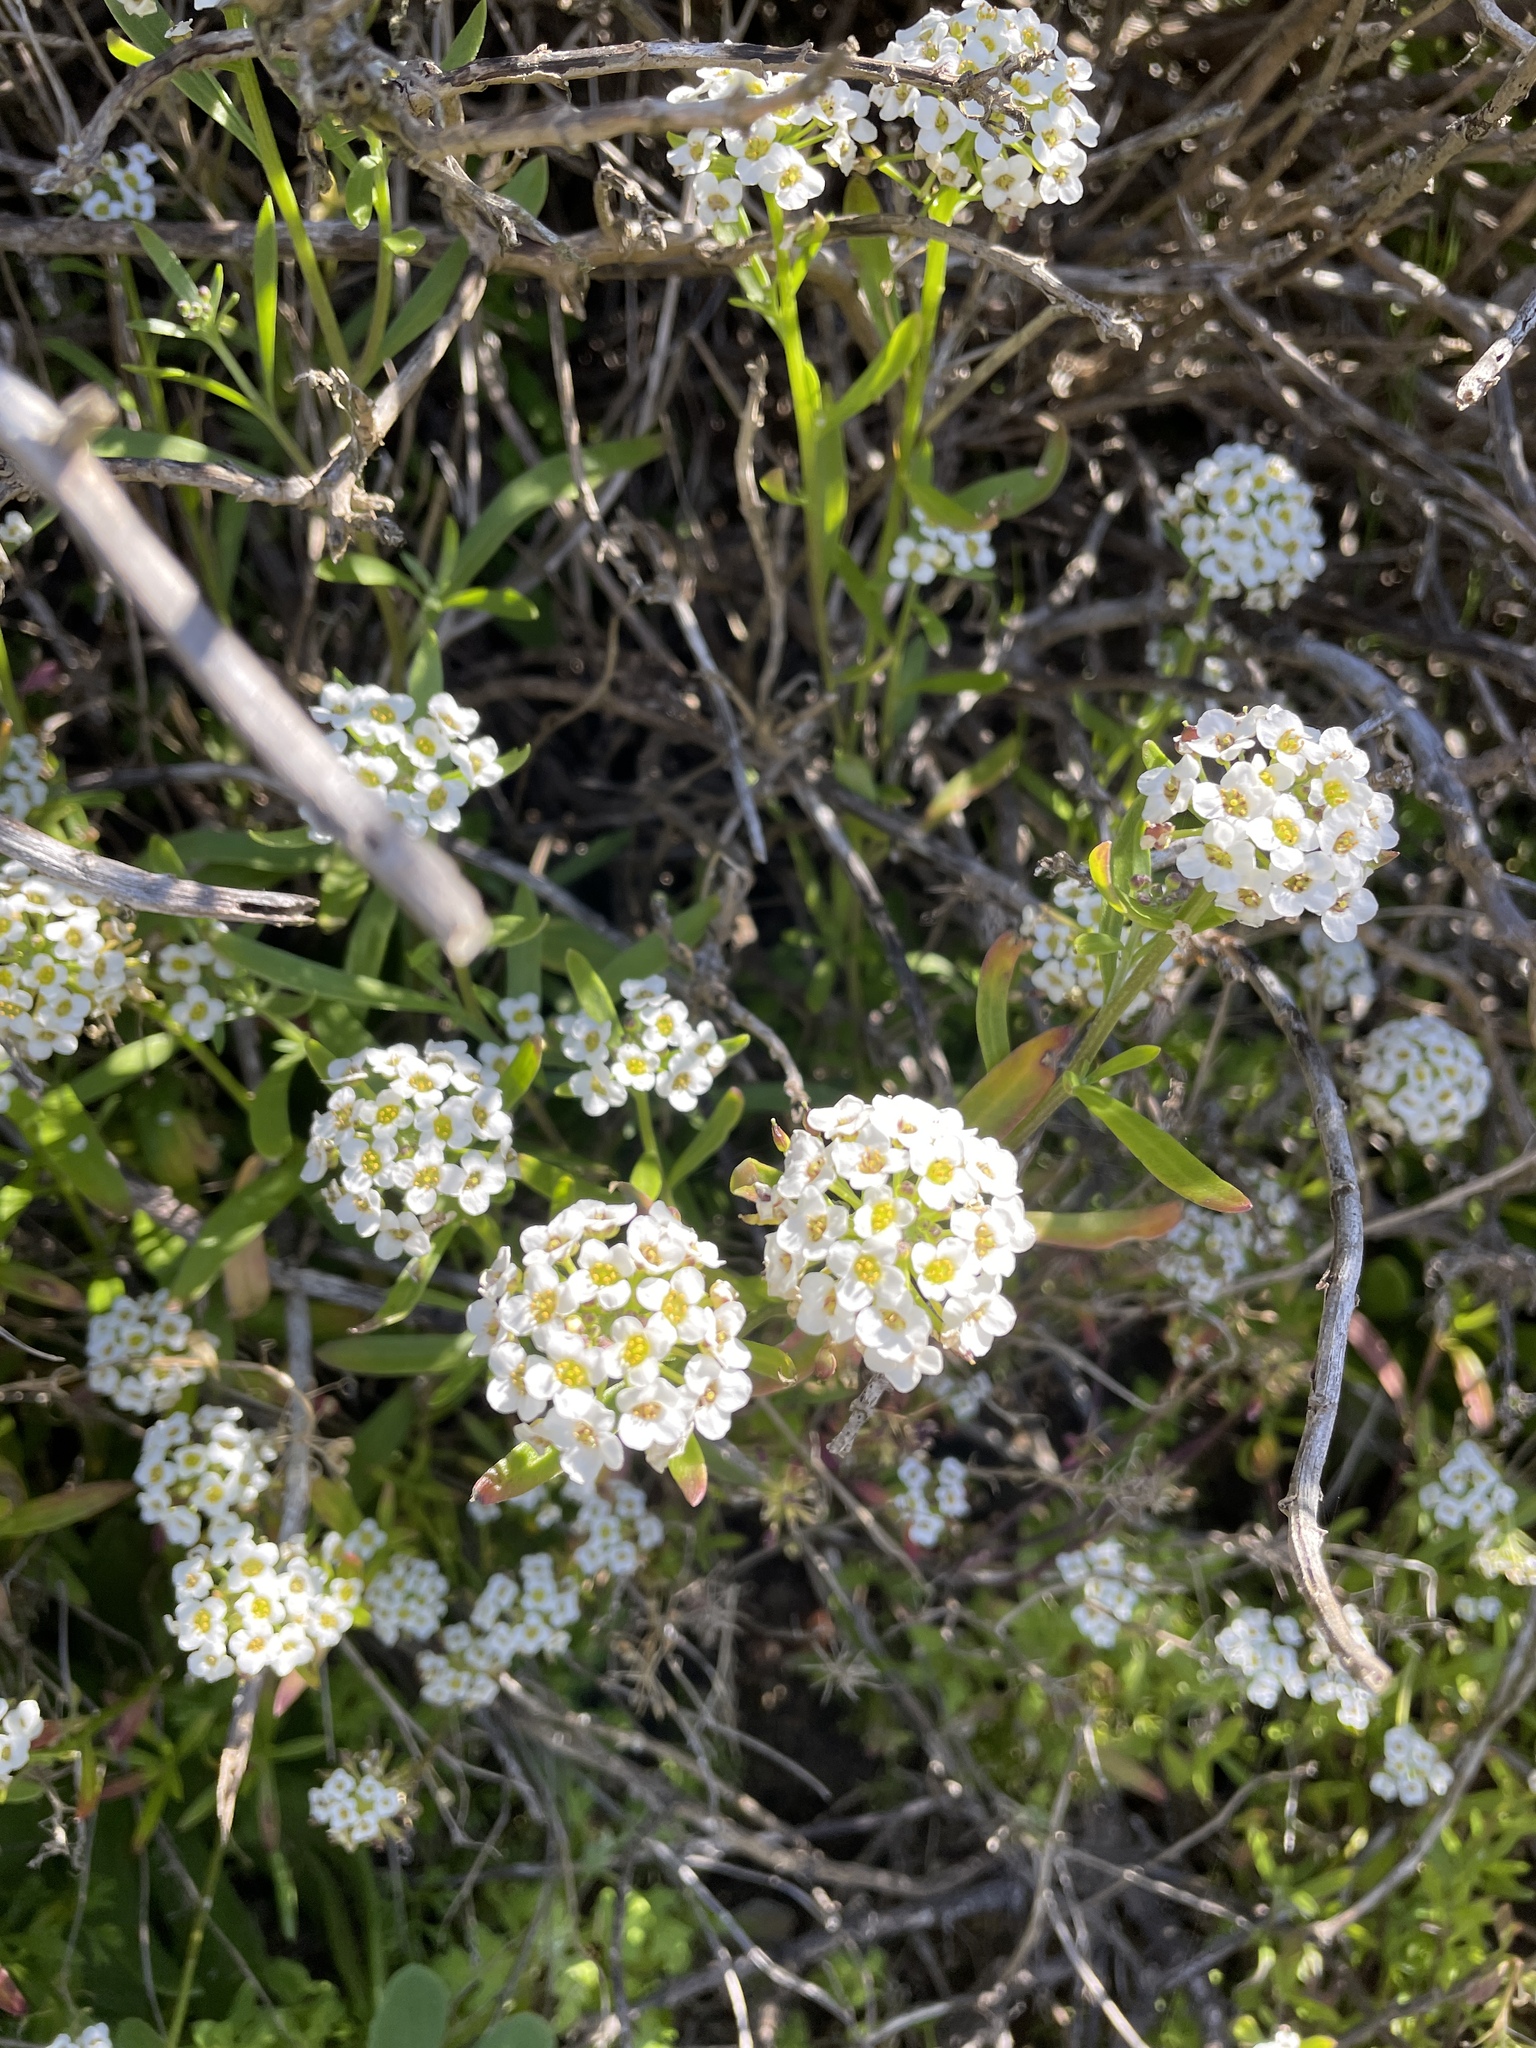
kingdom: Plantae
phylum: Tracheophyta
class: Magnoliopsida
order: Brassicales
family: Brassicaceae
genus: Lobularia
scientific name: Lobularia maritima
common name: Sweet alison
